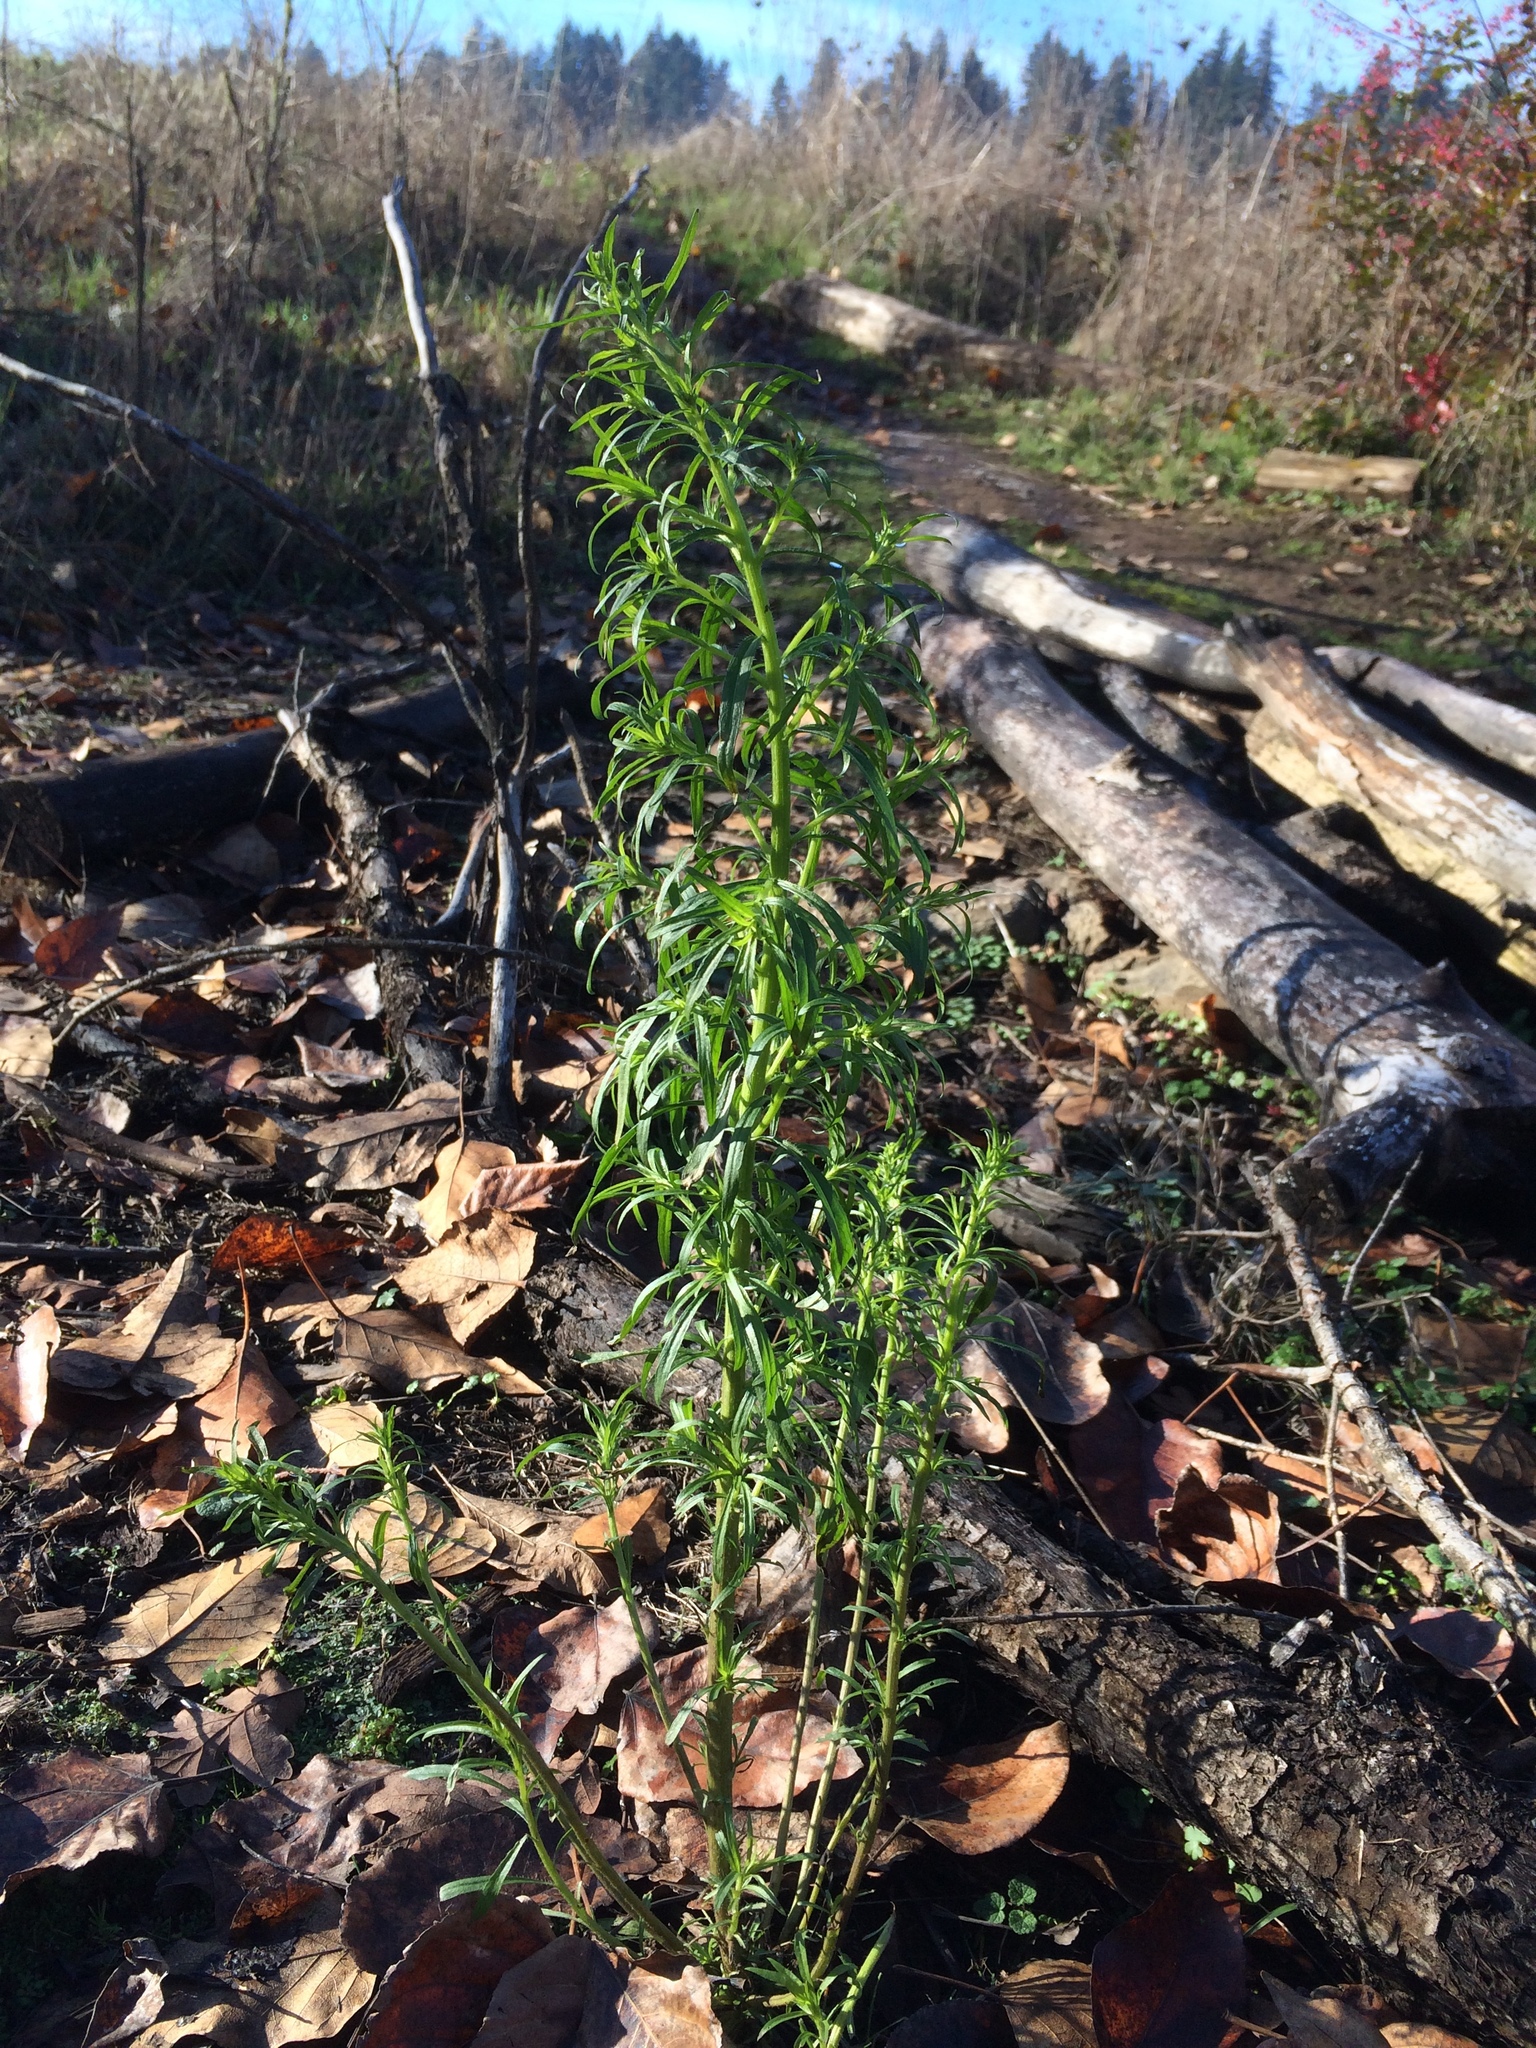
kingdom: Plantae
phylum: Tracheophyta
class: Magnoliopsida
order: Asterales
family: Asteraceae
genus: Erigeron
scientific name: Erigeron canadensis
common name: Canadian fleabane
